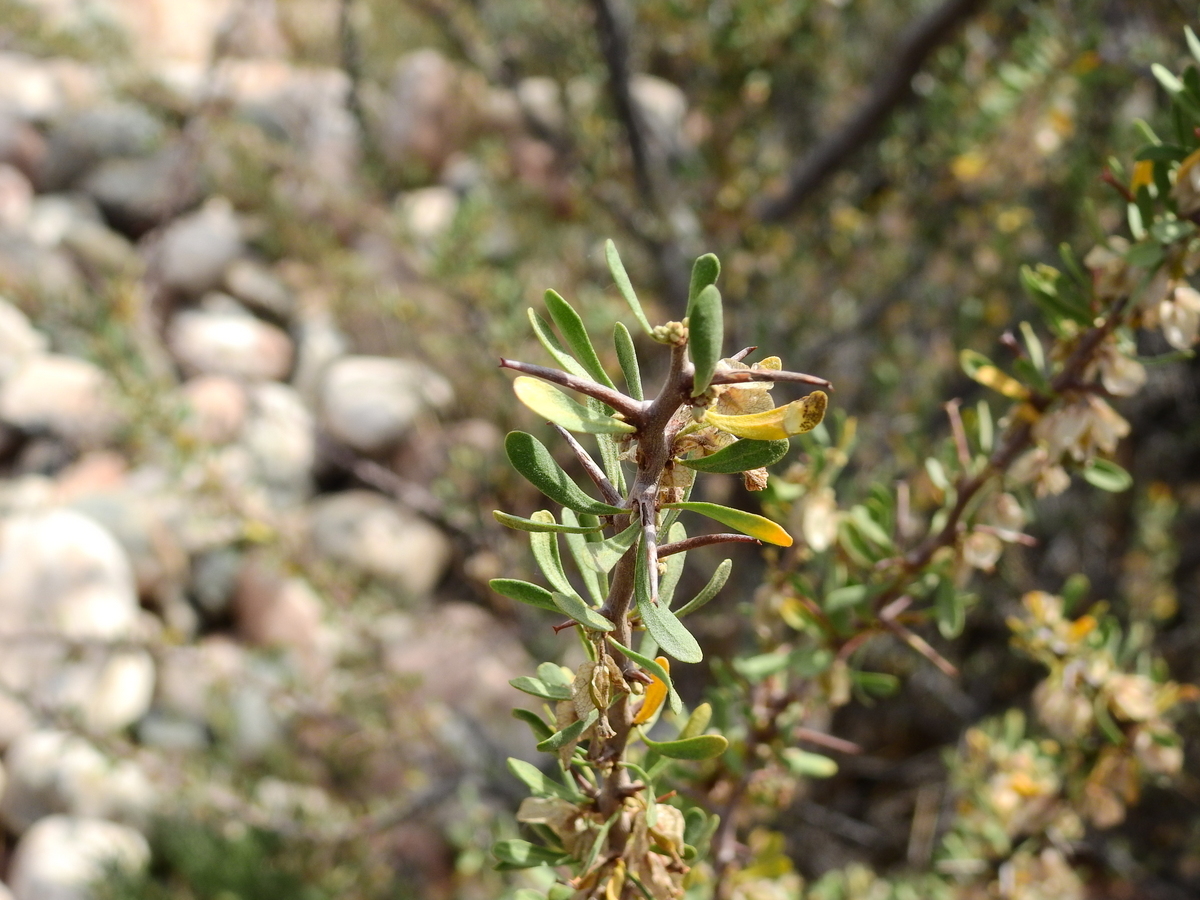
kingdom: Plantae
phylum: Tracheophyta
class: Magnoliopsida
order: Caryophyllales
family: Nyctaginaceae
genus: Bougainvillea
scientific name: Bougainvillea spinosa
